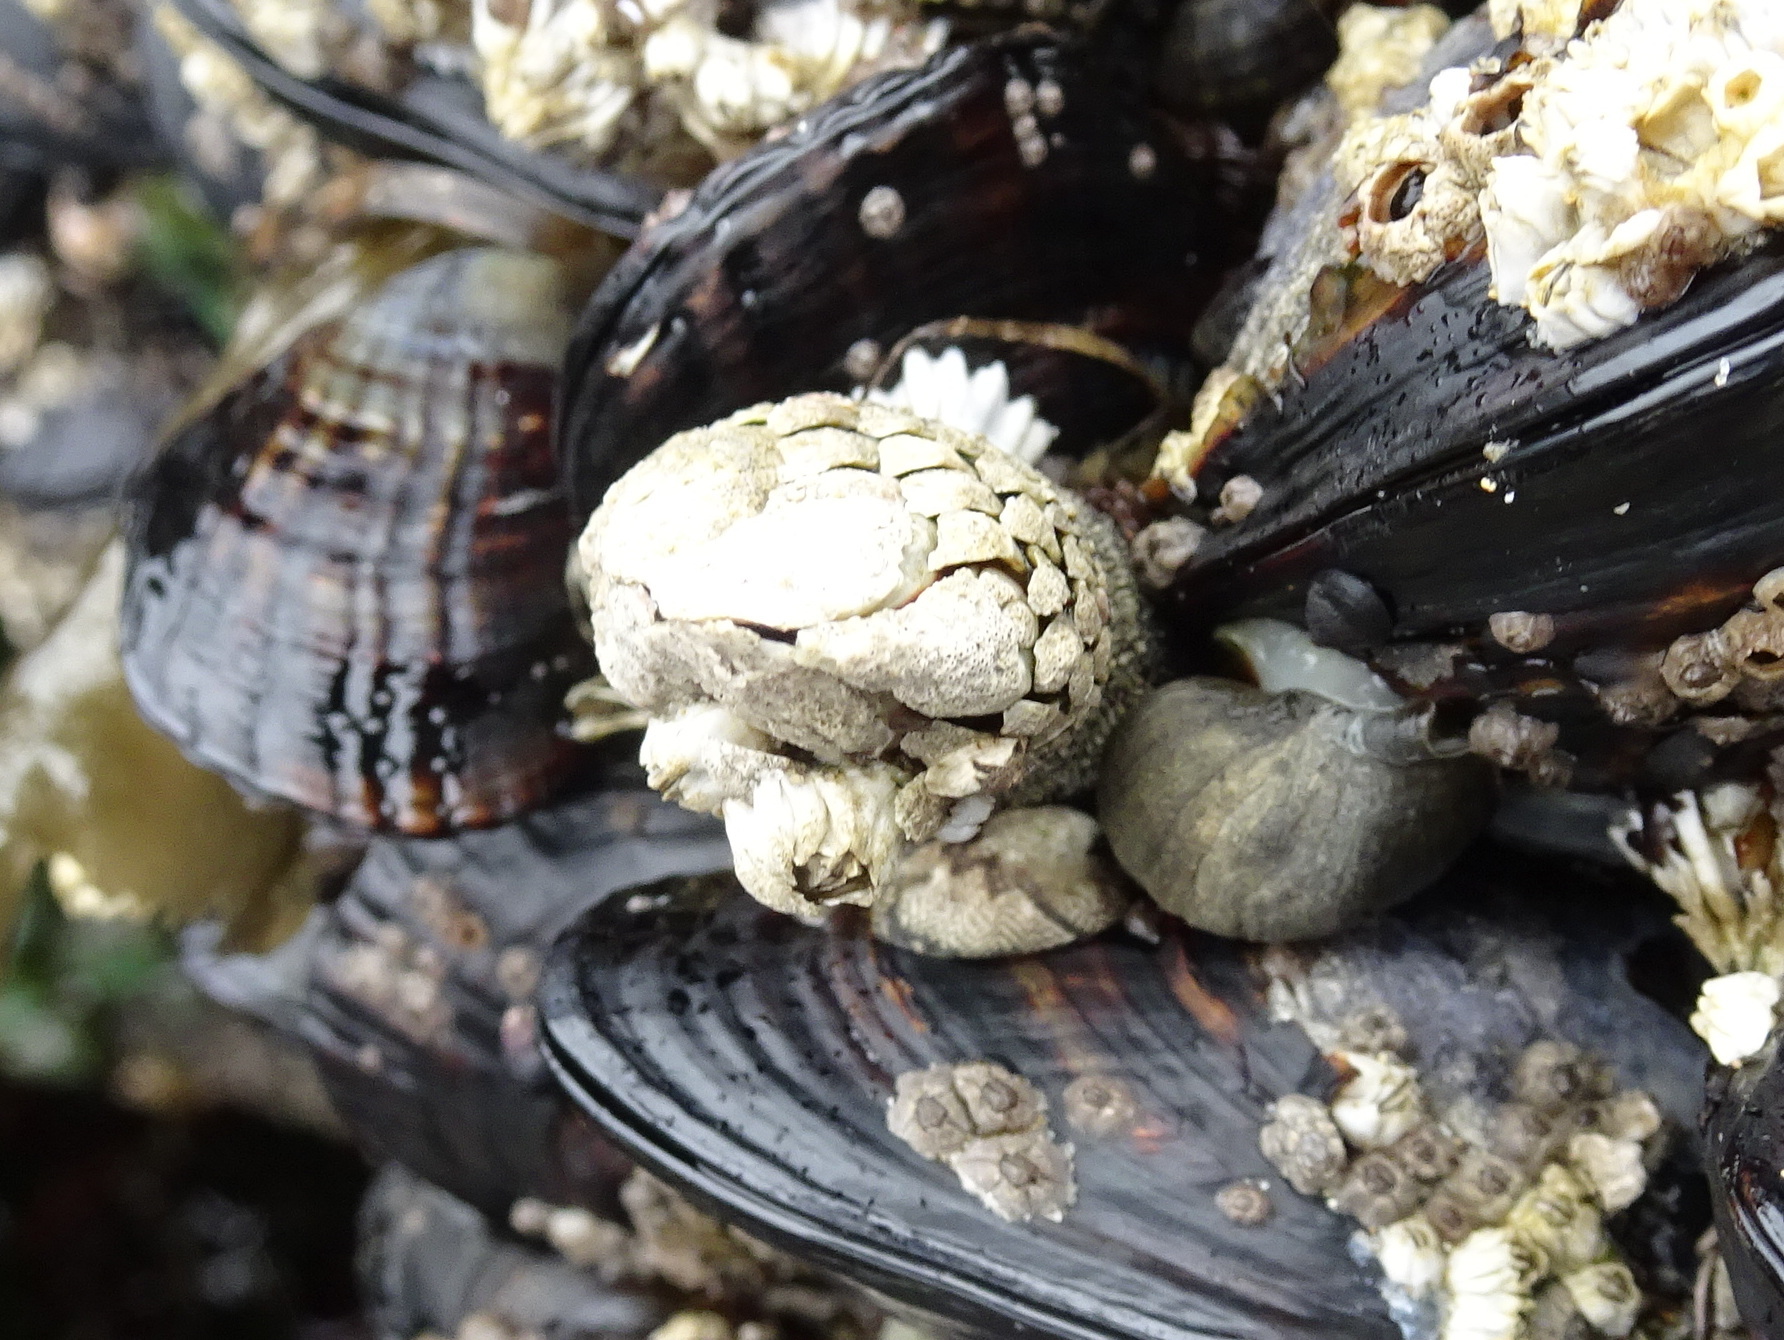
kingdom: Animalia
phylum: Arthropoda
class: Maxillopoda
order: Pedunculata
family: Pollicipedidae
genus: Pollicipes
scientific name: Pollicipes polymerus
